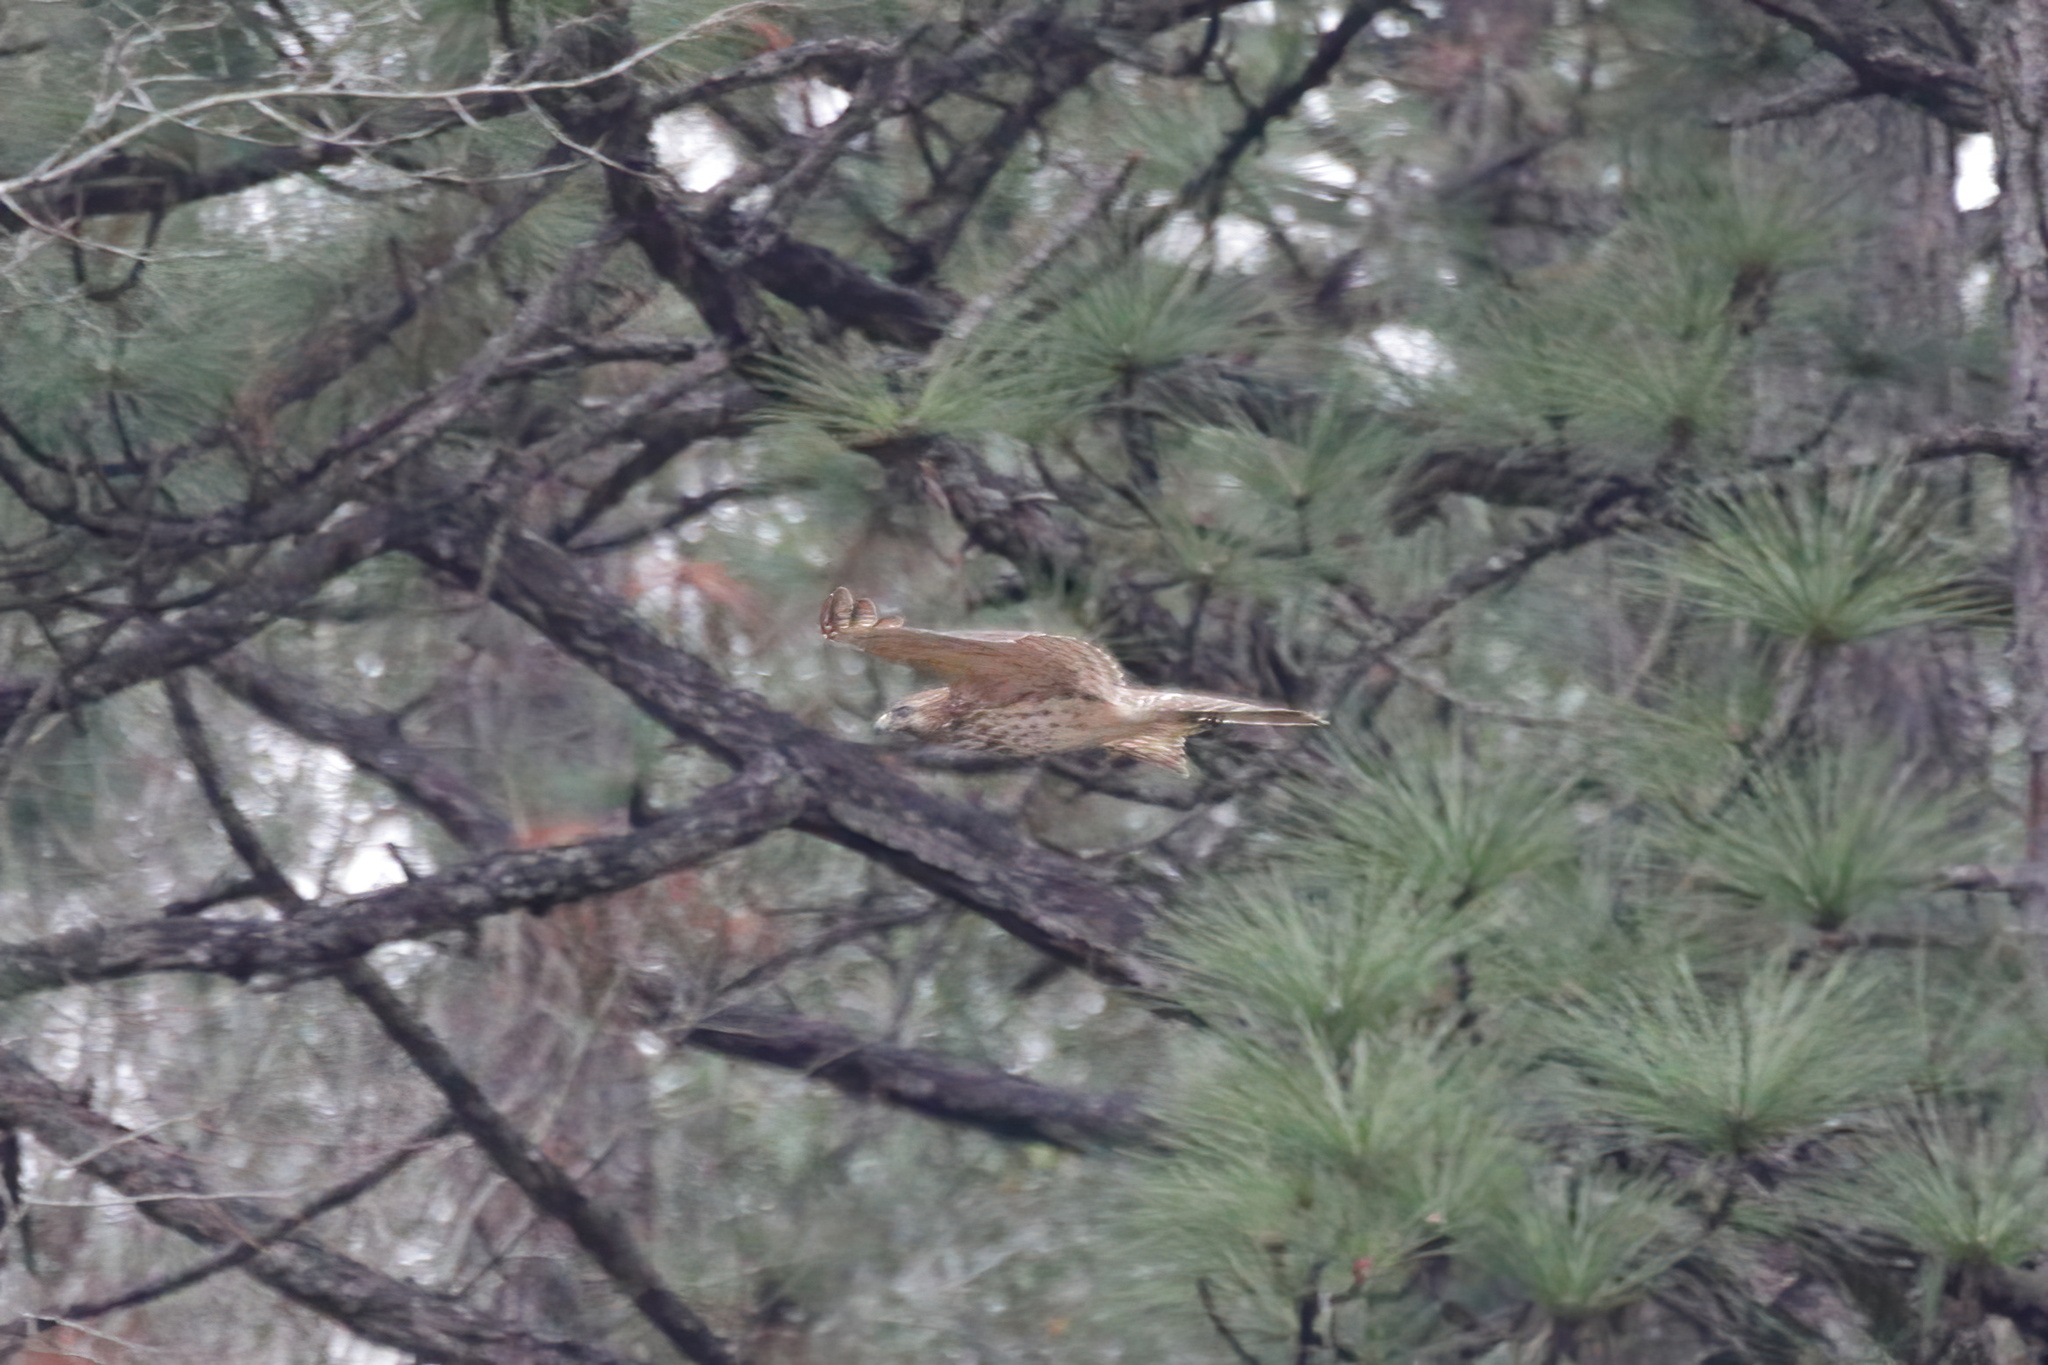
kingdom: Animalia
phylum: Chordata
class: Aves
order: Accipitriformes
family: Accipitridae
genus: Buteo
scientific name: Buteo lineatus
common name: Red-shouldered hawk
